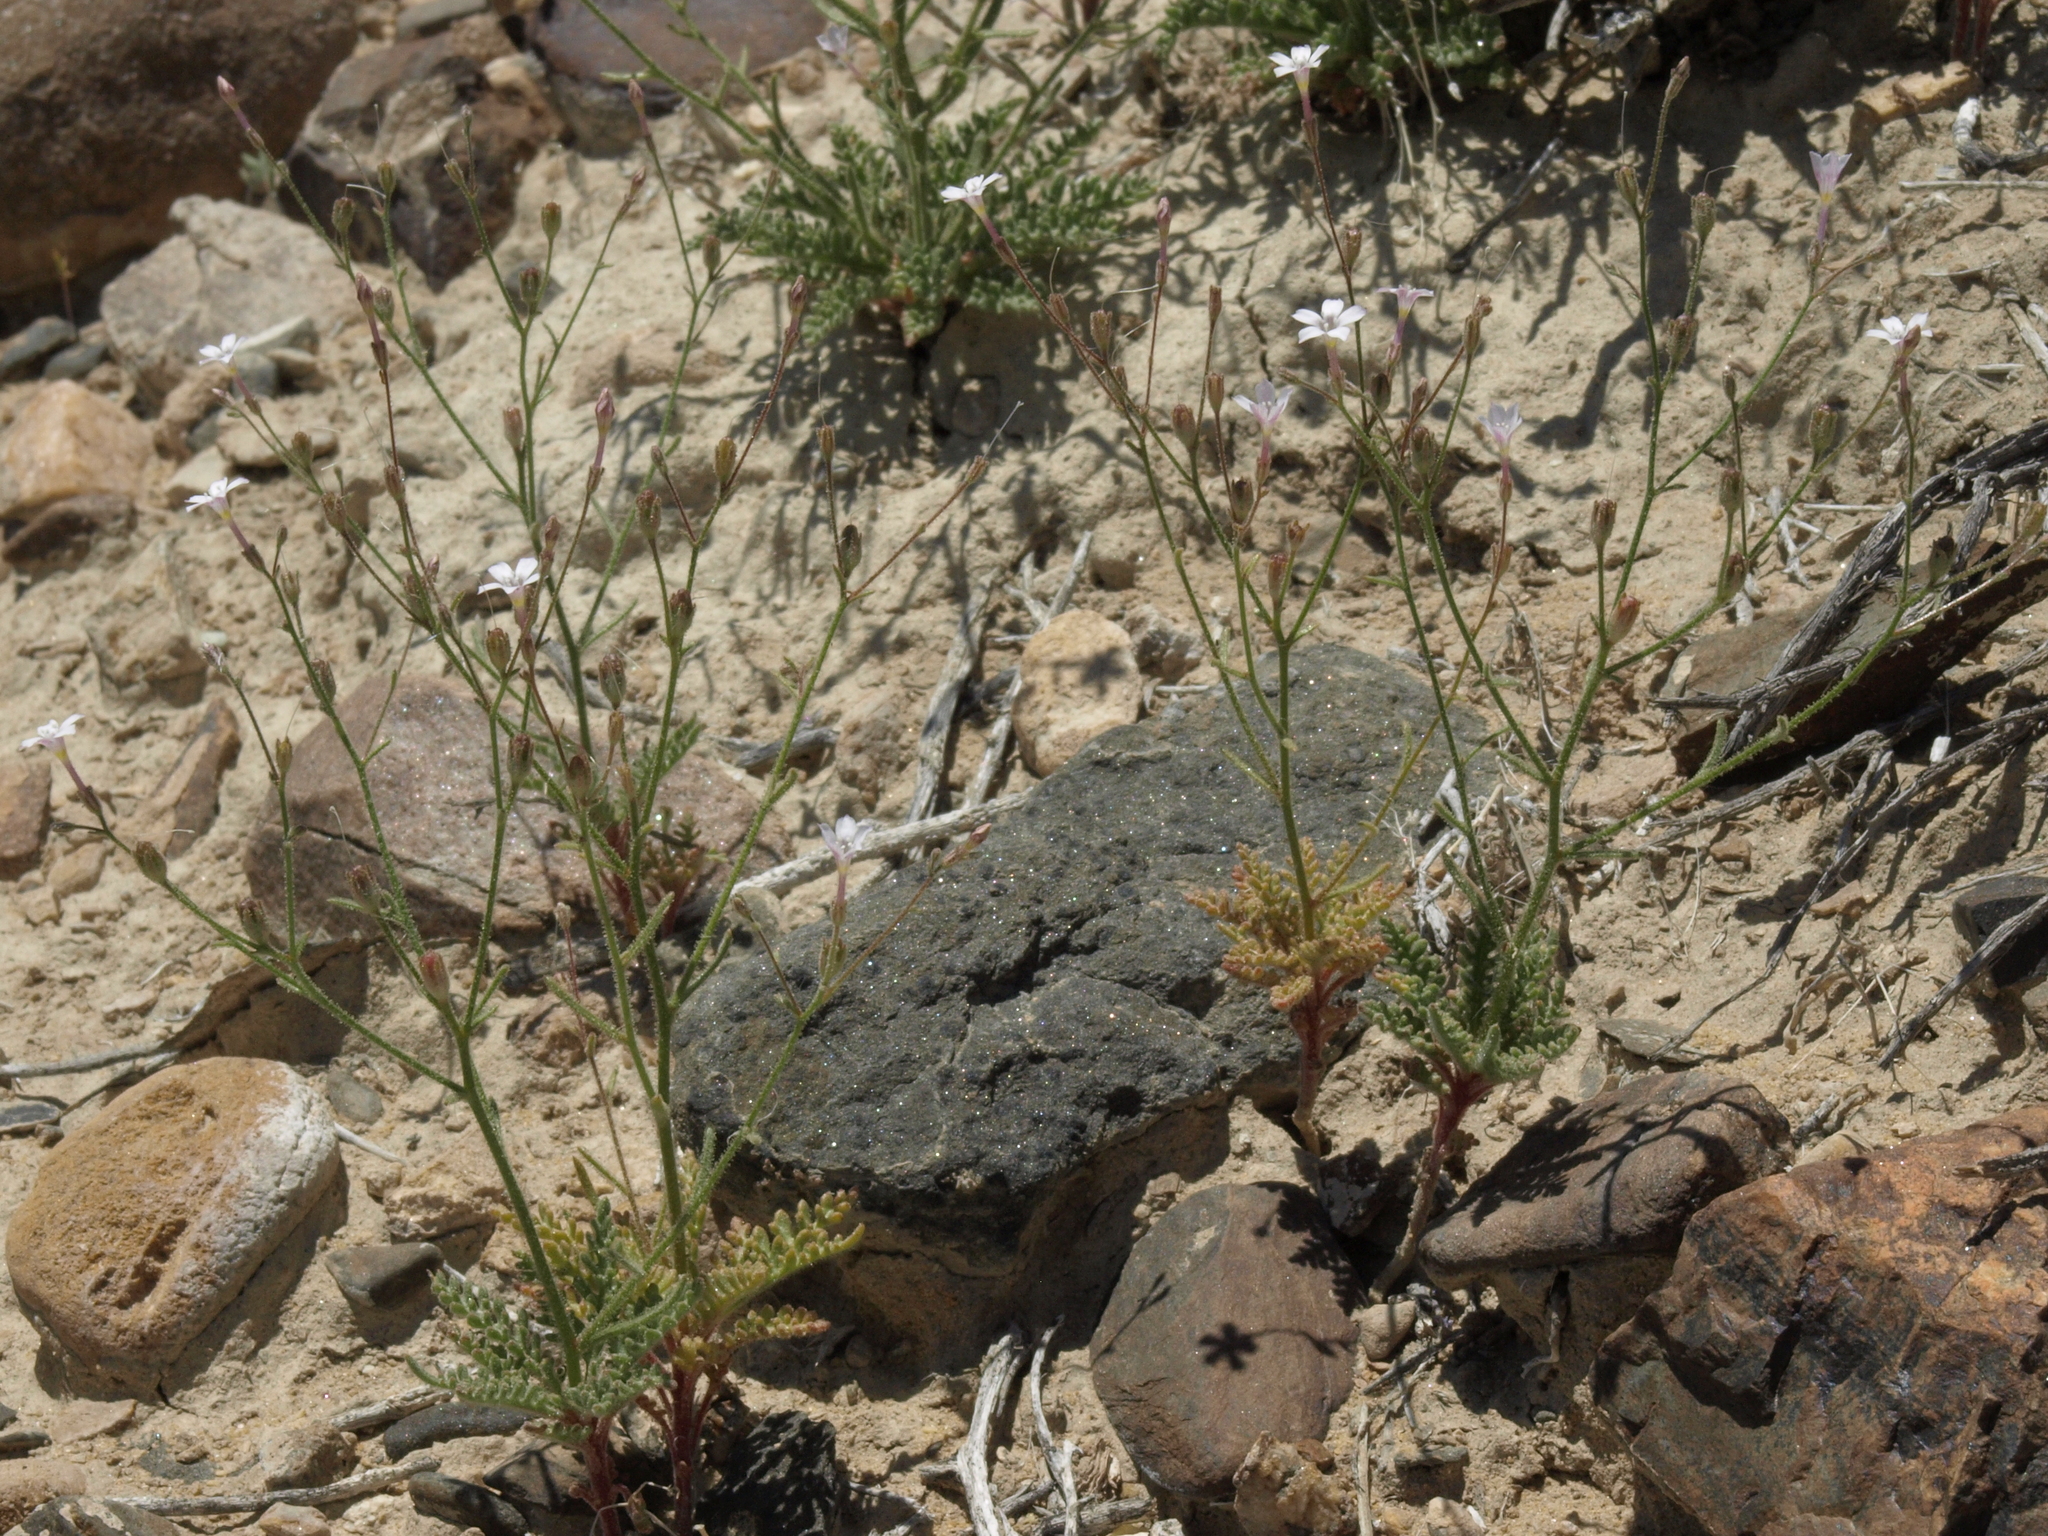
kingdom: Plantae
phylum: Tracheophyta
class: Magnoliopsida
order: Ericales
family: Polemoniaceae
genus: Aliciella
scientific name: Aliciella hutchinsifolia
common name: Desert pale gilia
